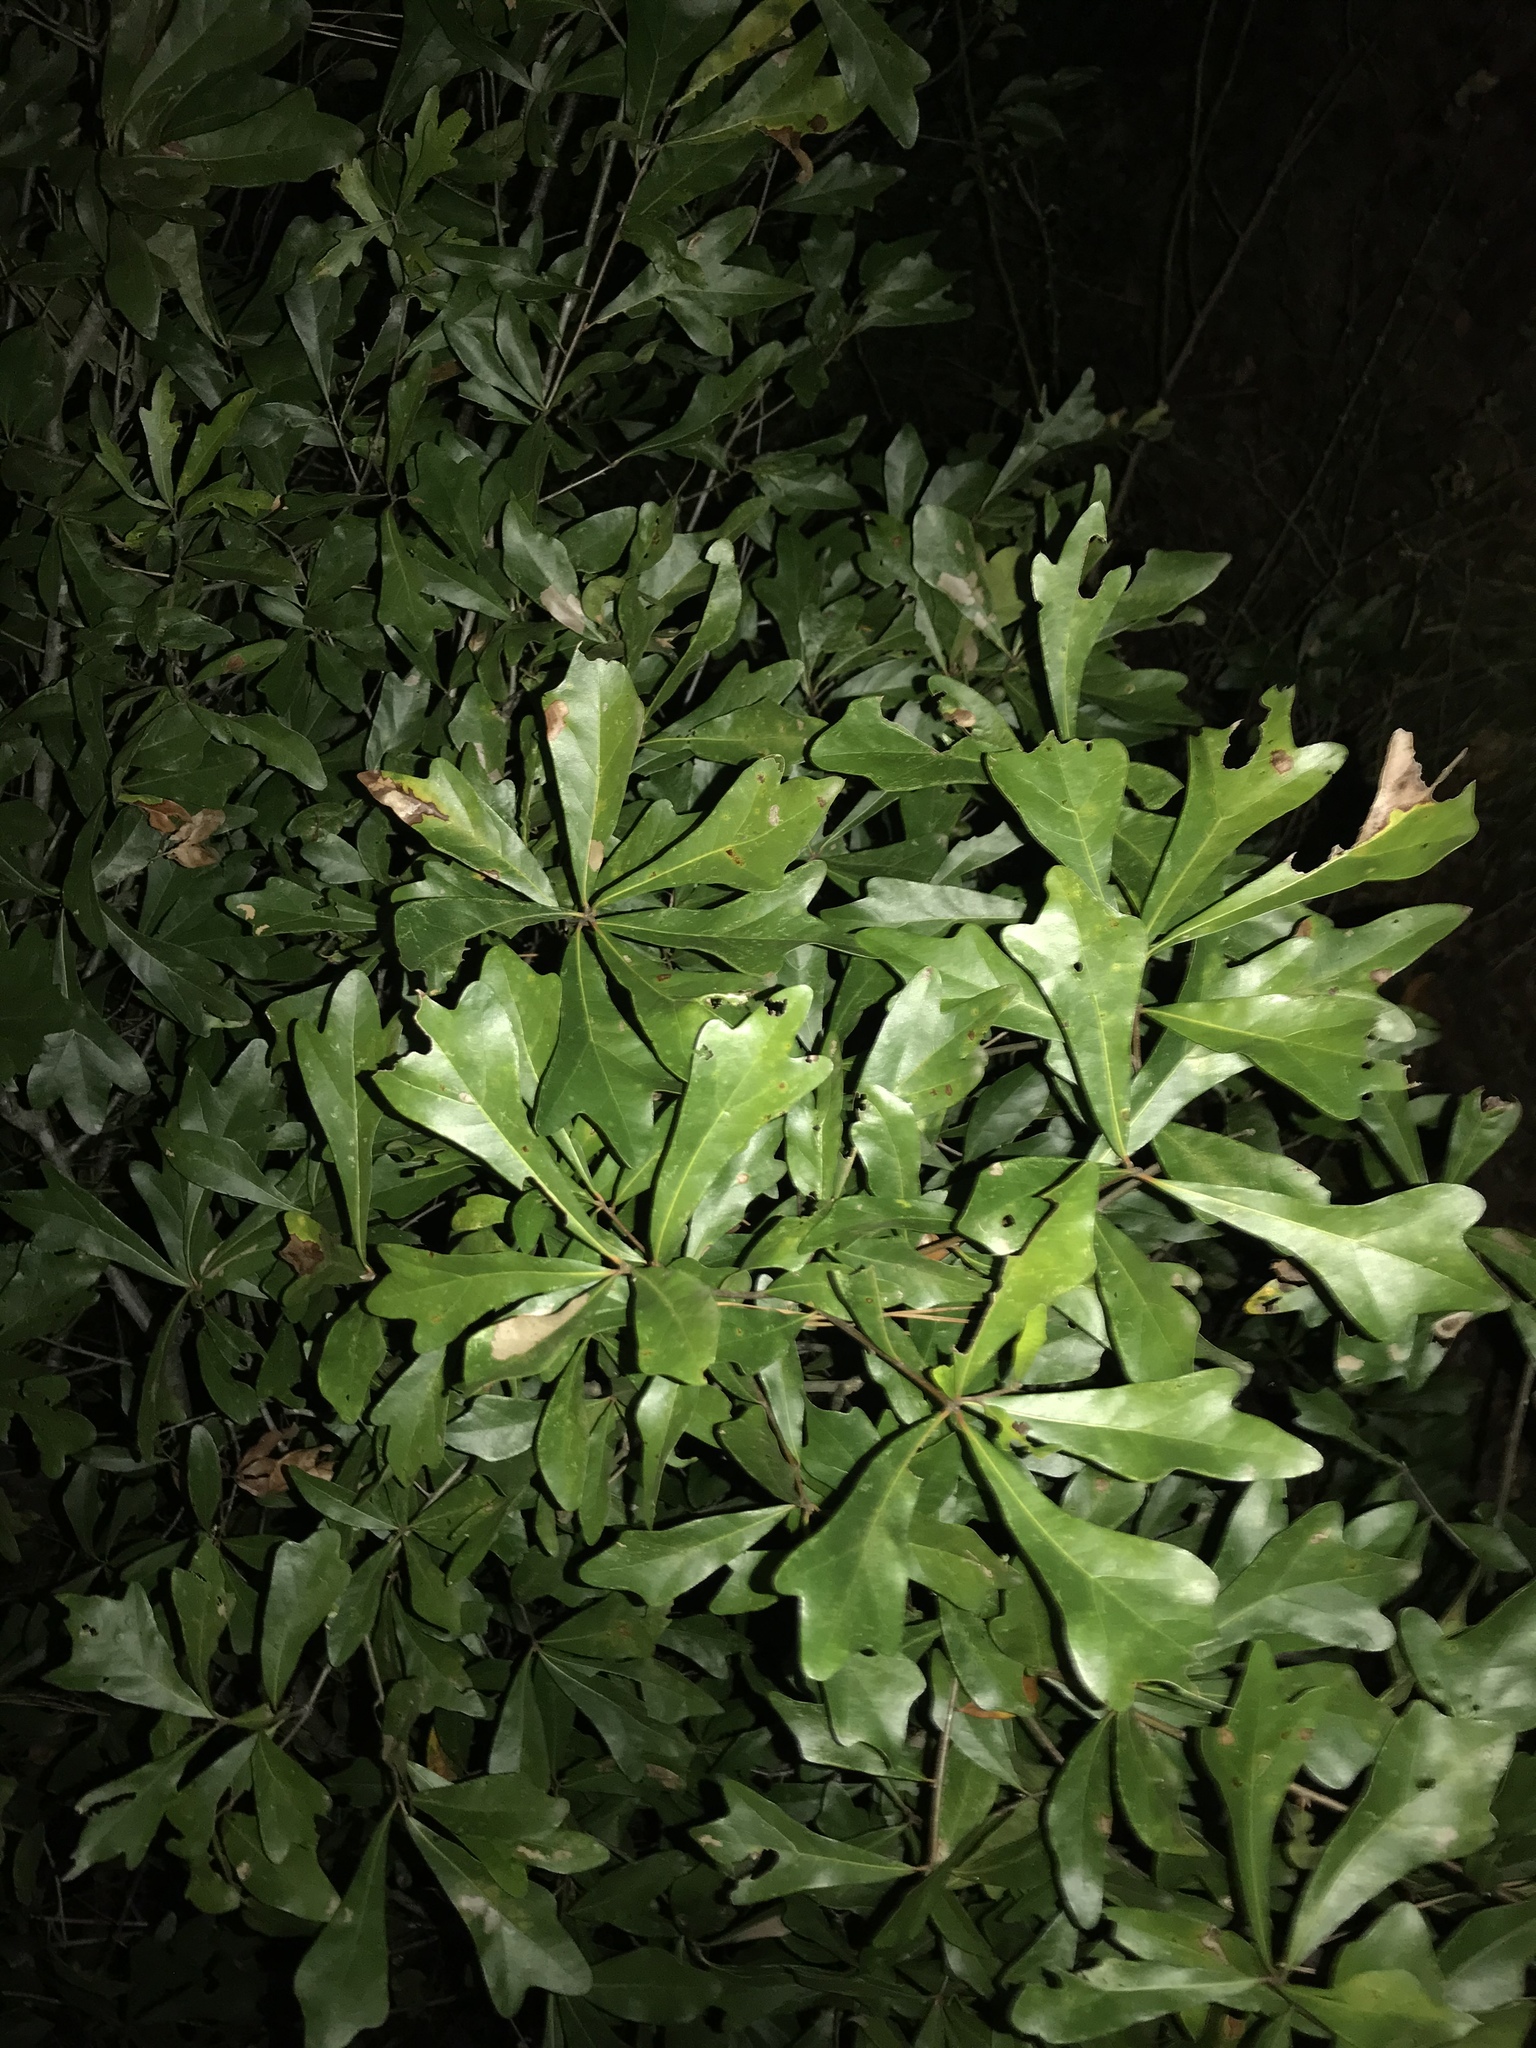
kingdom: Plantae
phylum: Tracheophyta
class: Magnoliopsida
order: Fagales
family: Fagaceae
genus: Quercus
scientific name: Quercus nigra
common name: Water oak
